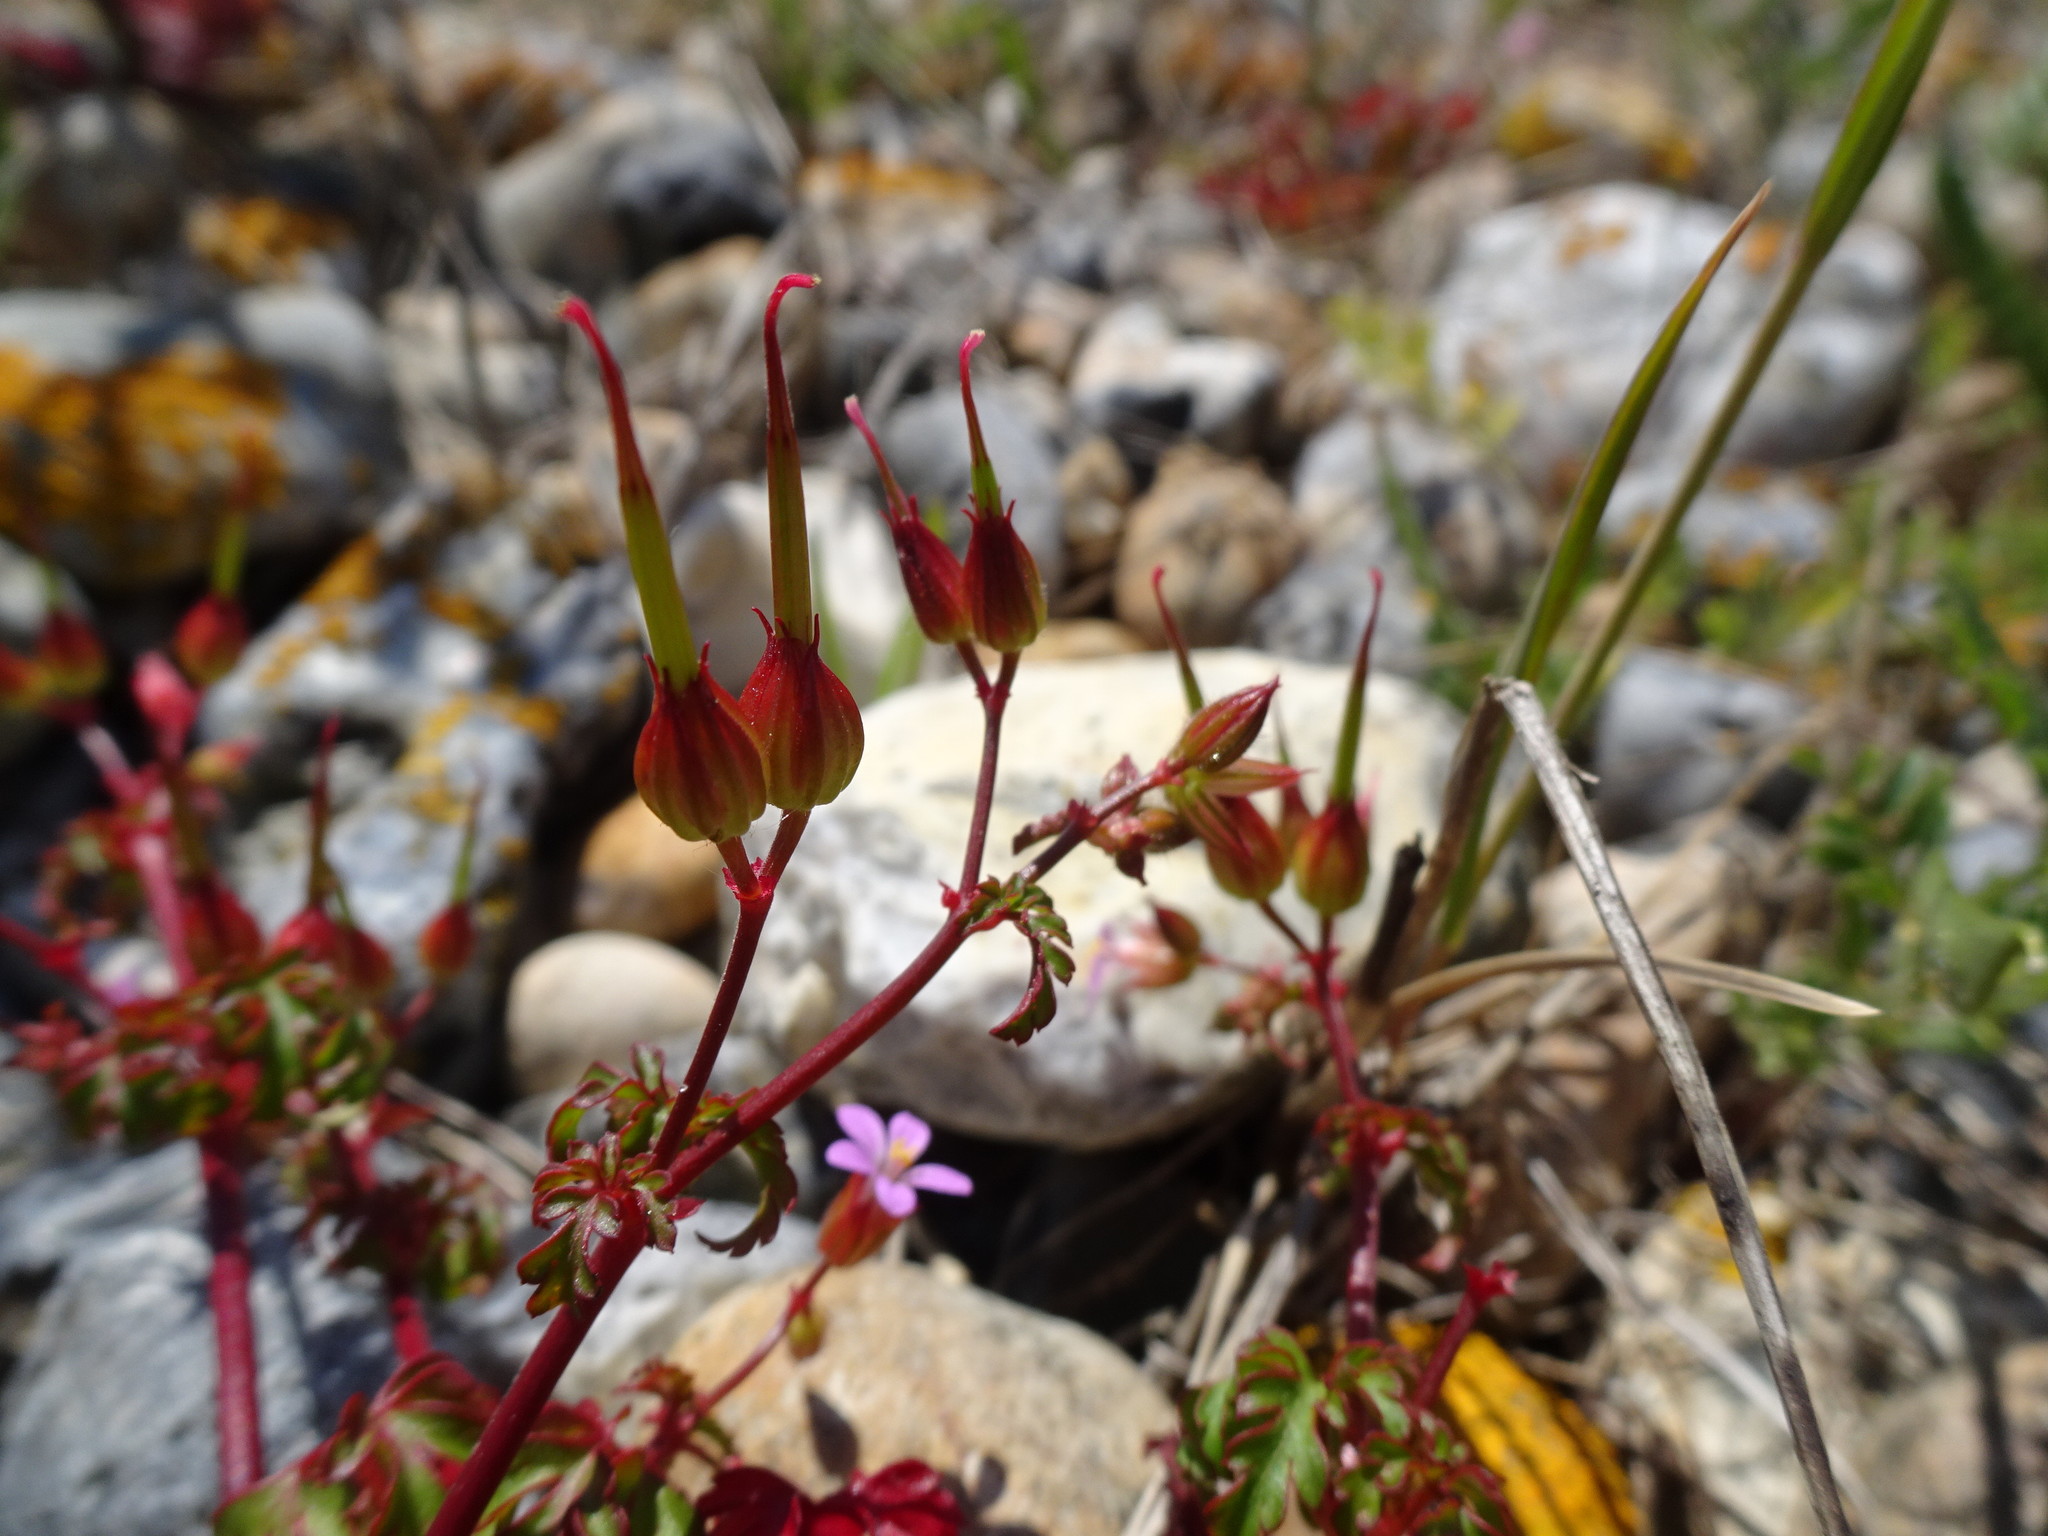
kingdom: Plantae
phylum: Tracheophyta
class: Magnoliopsida
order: Geraniales
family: Geraniaceae
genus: Geranium
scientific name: Geranium purpureum
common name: Little-robin
